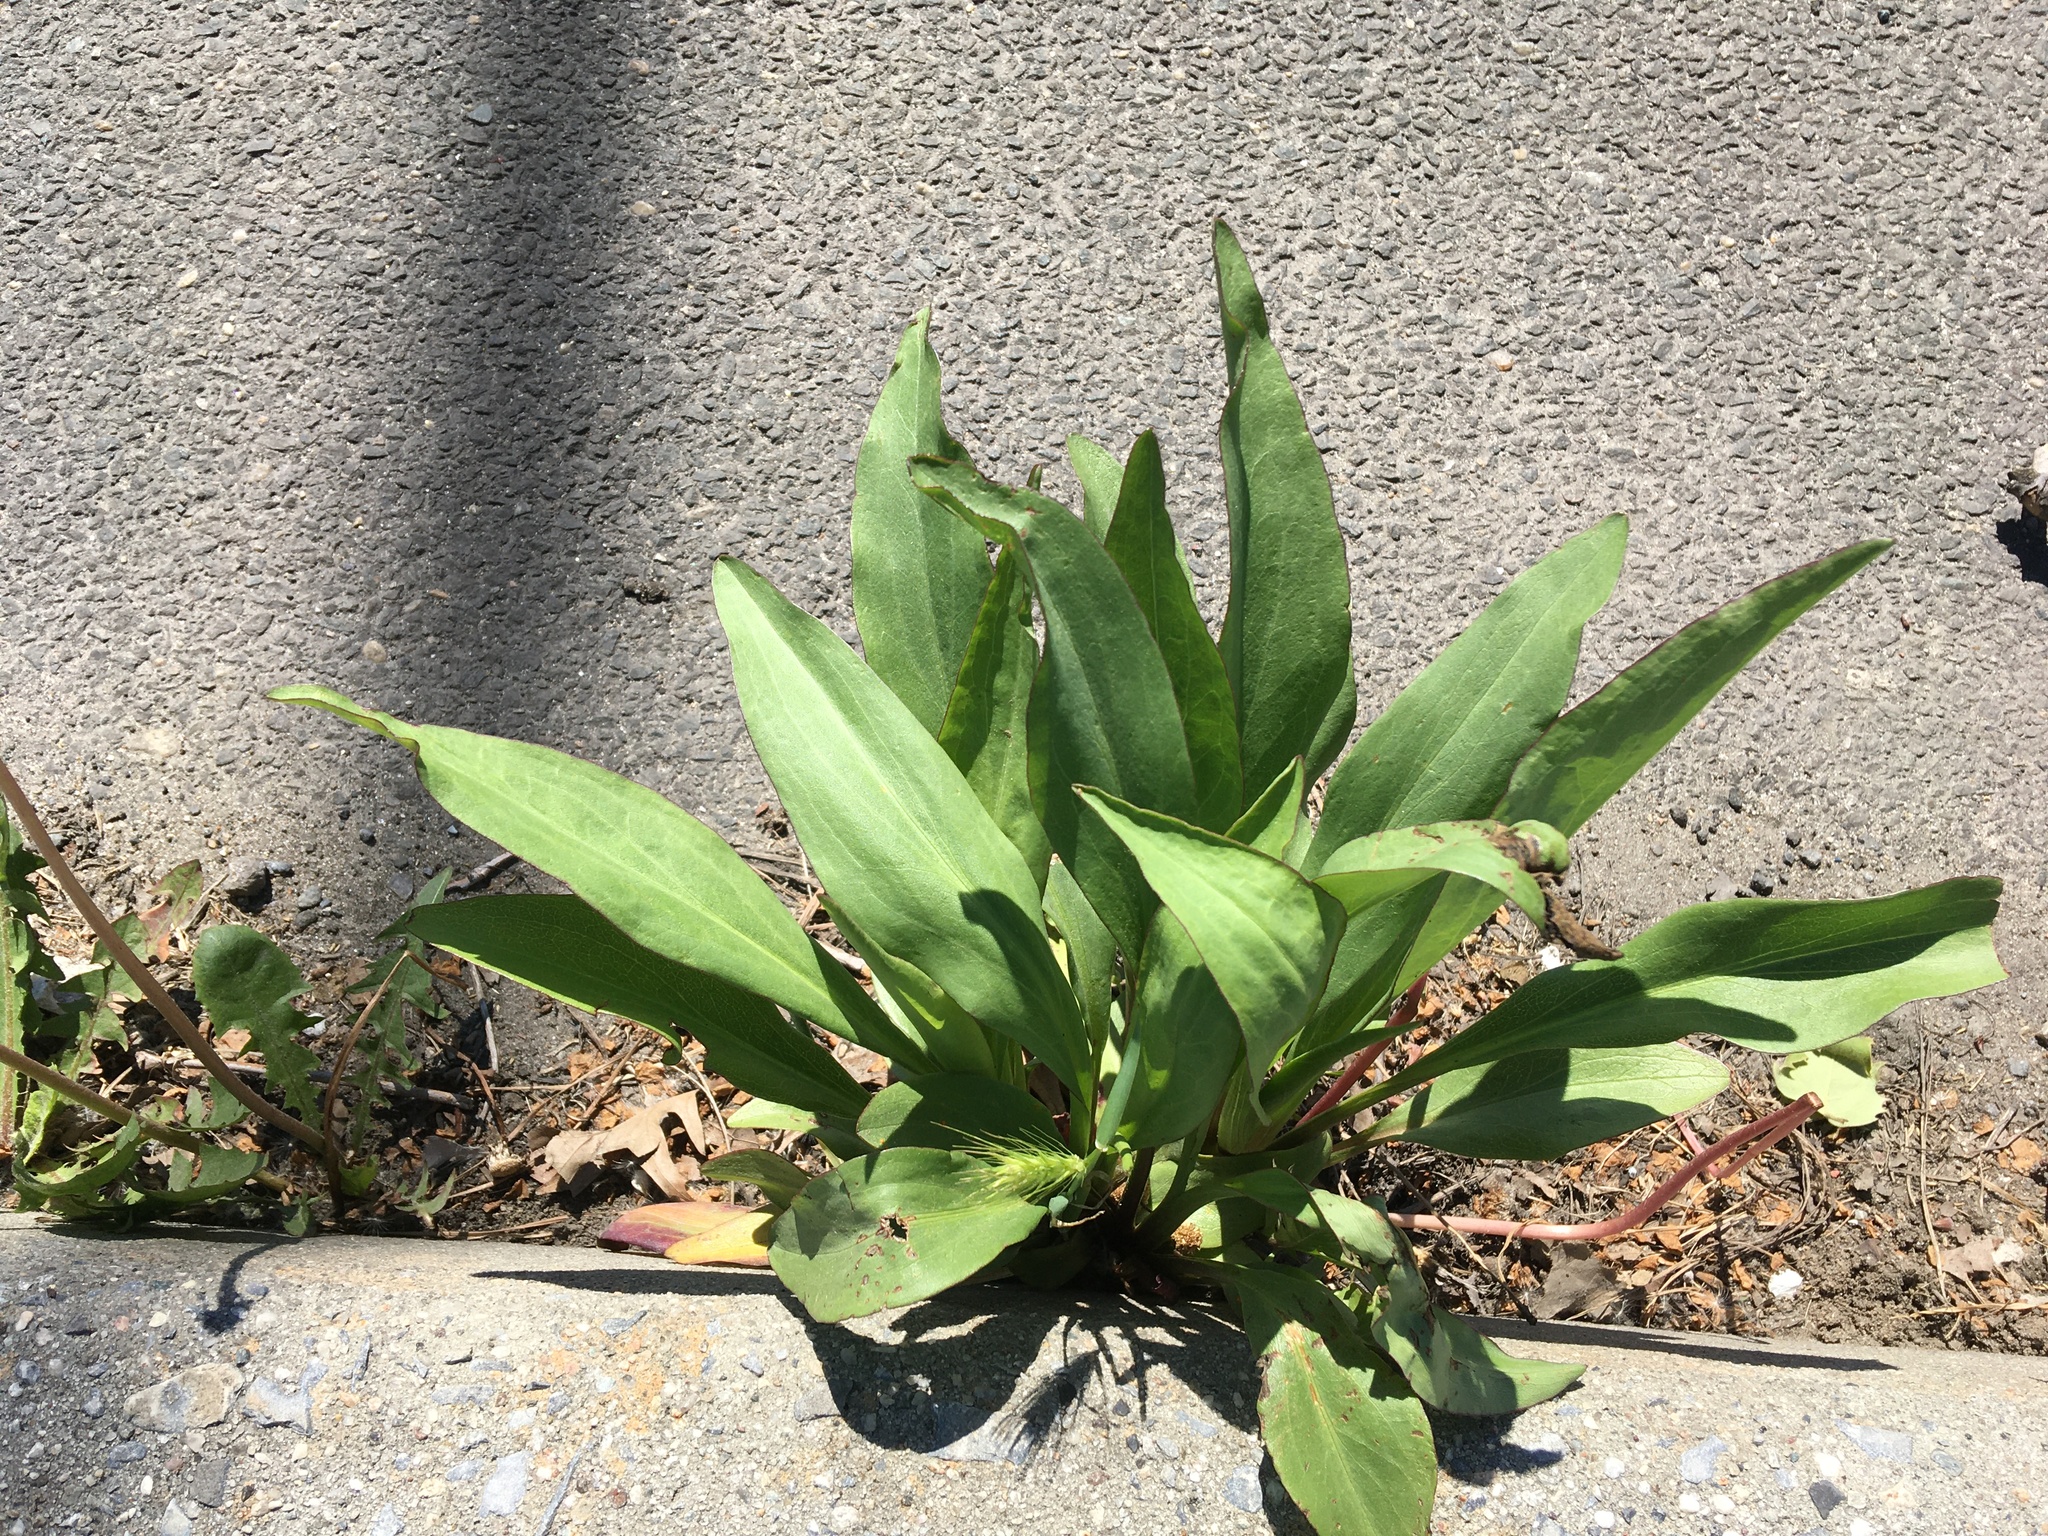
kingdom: Plantae
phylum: Tracheophyta
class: Magnoliopsida
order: Asterales
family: Asteraceae
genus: Solidago
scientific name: Solidago sempervirens
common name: Salt-marsh goldenrod
